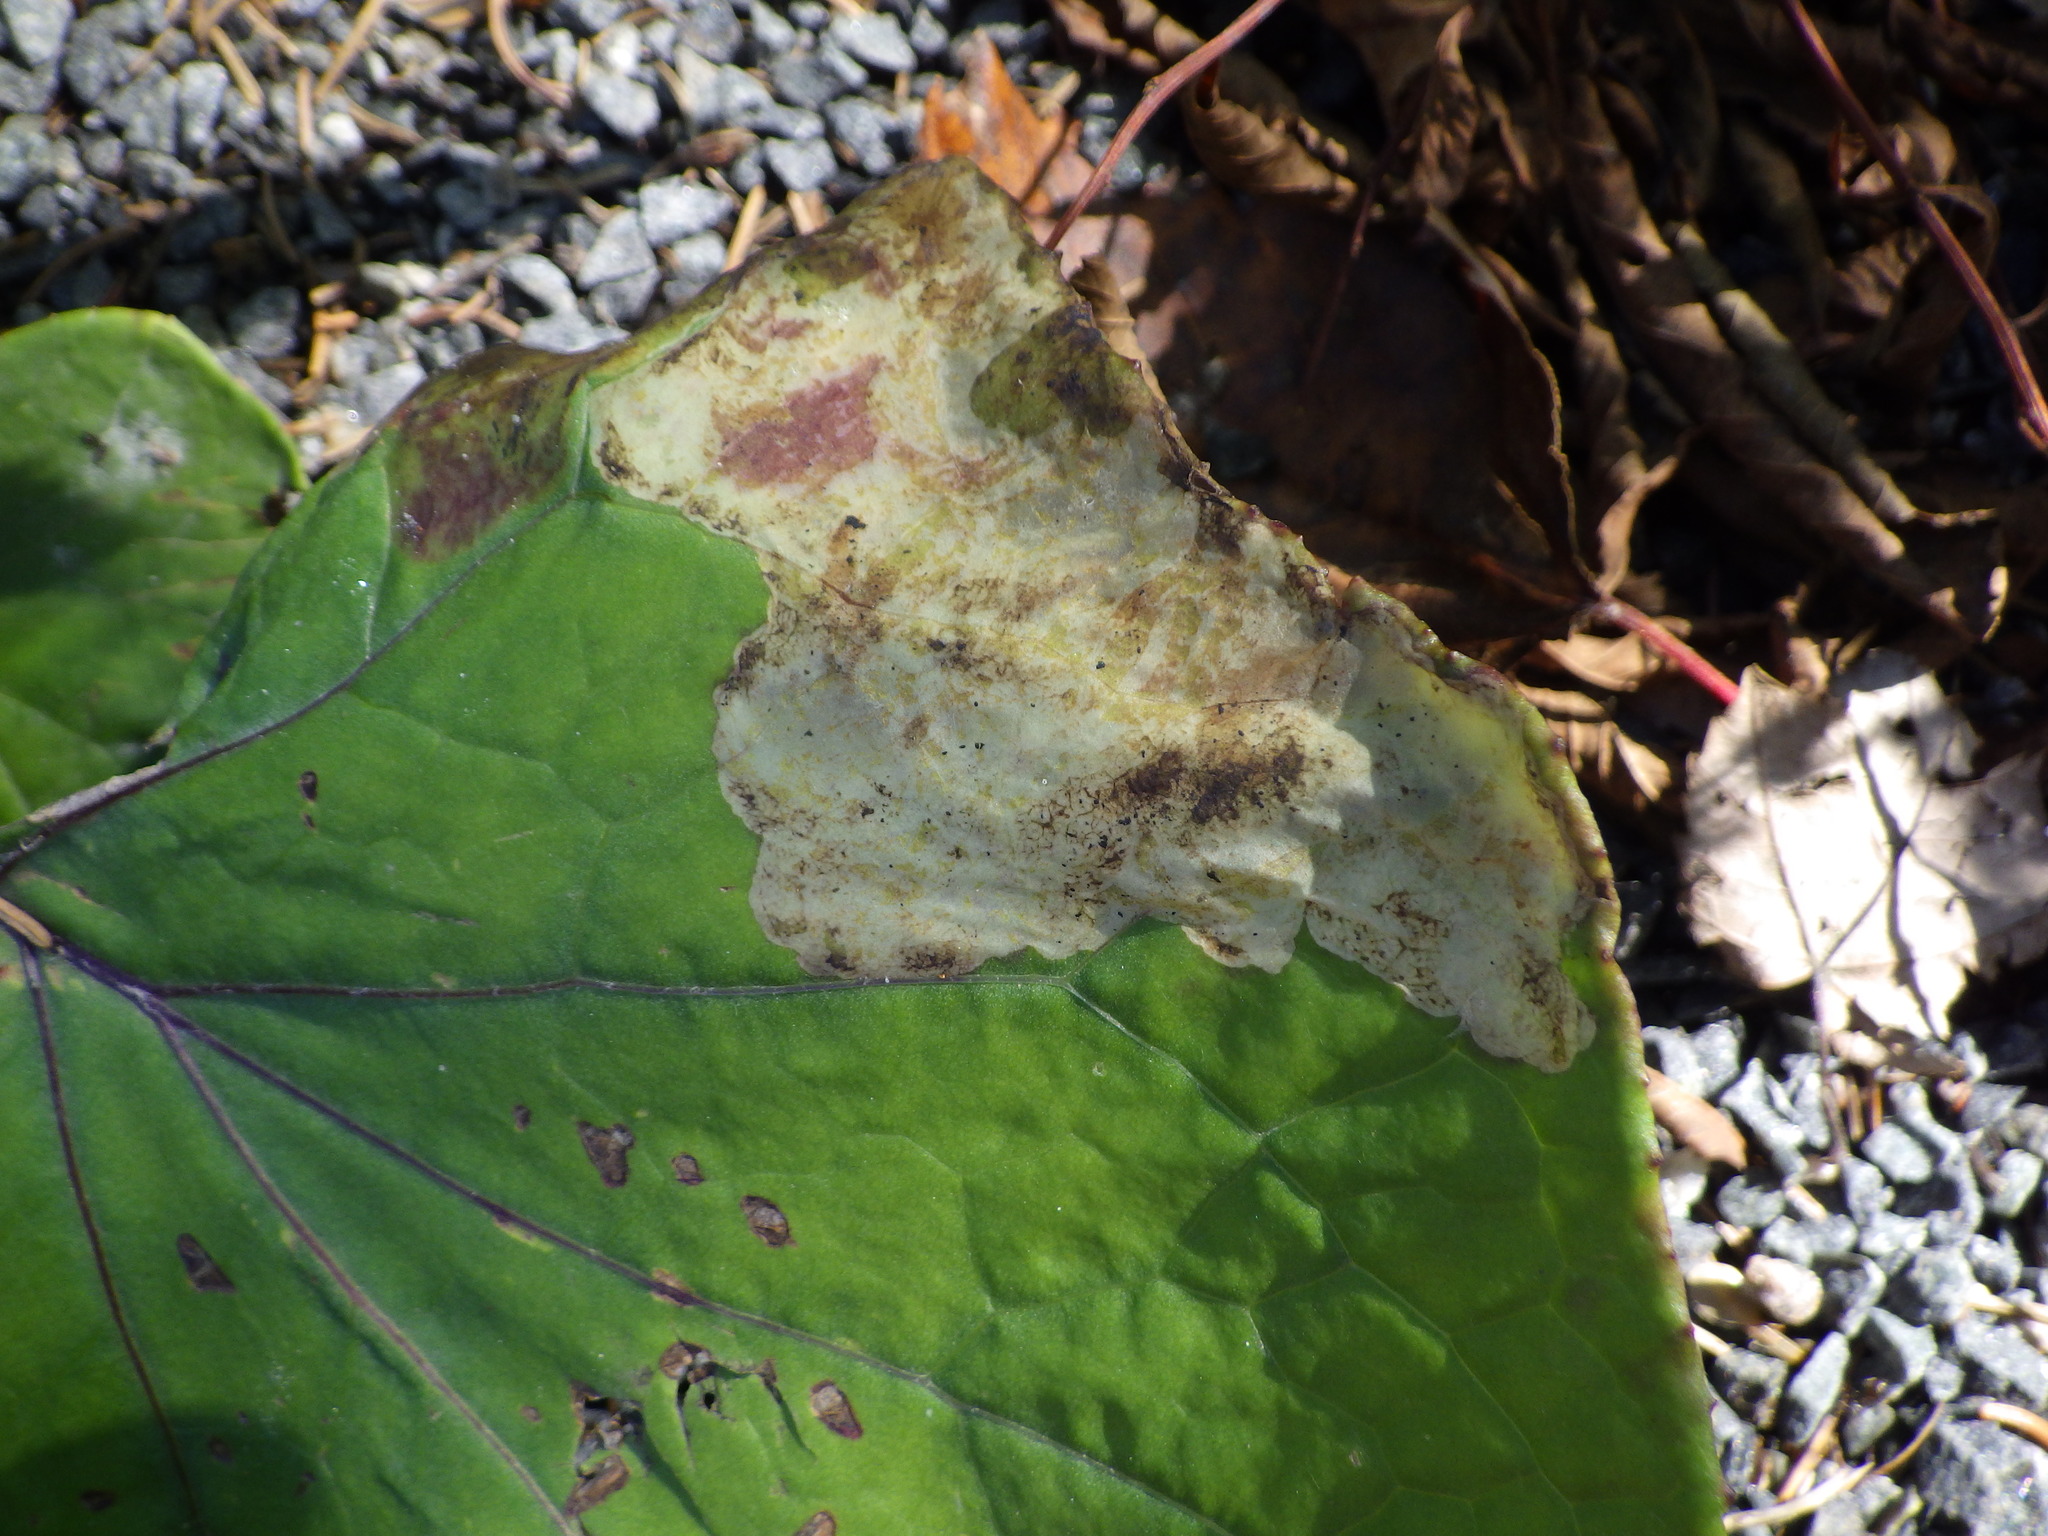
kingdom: Animalia
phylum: Arthropoda
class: Insecta
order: Diptera
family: Tephritidae
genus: Acidia
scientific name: Acidia cognata
